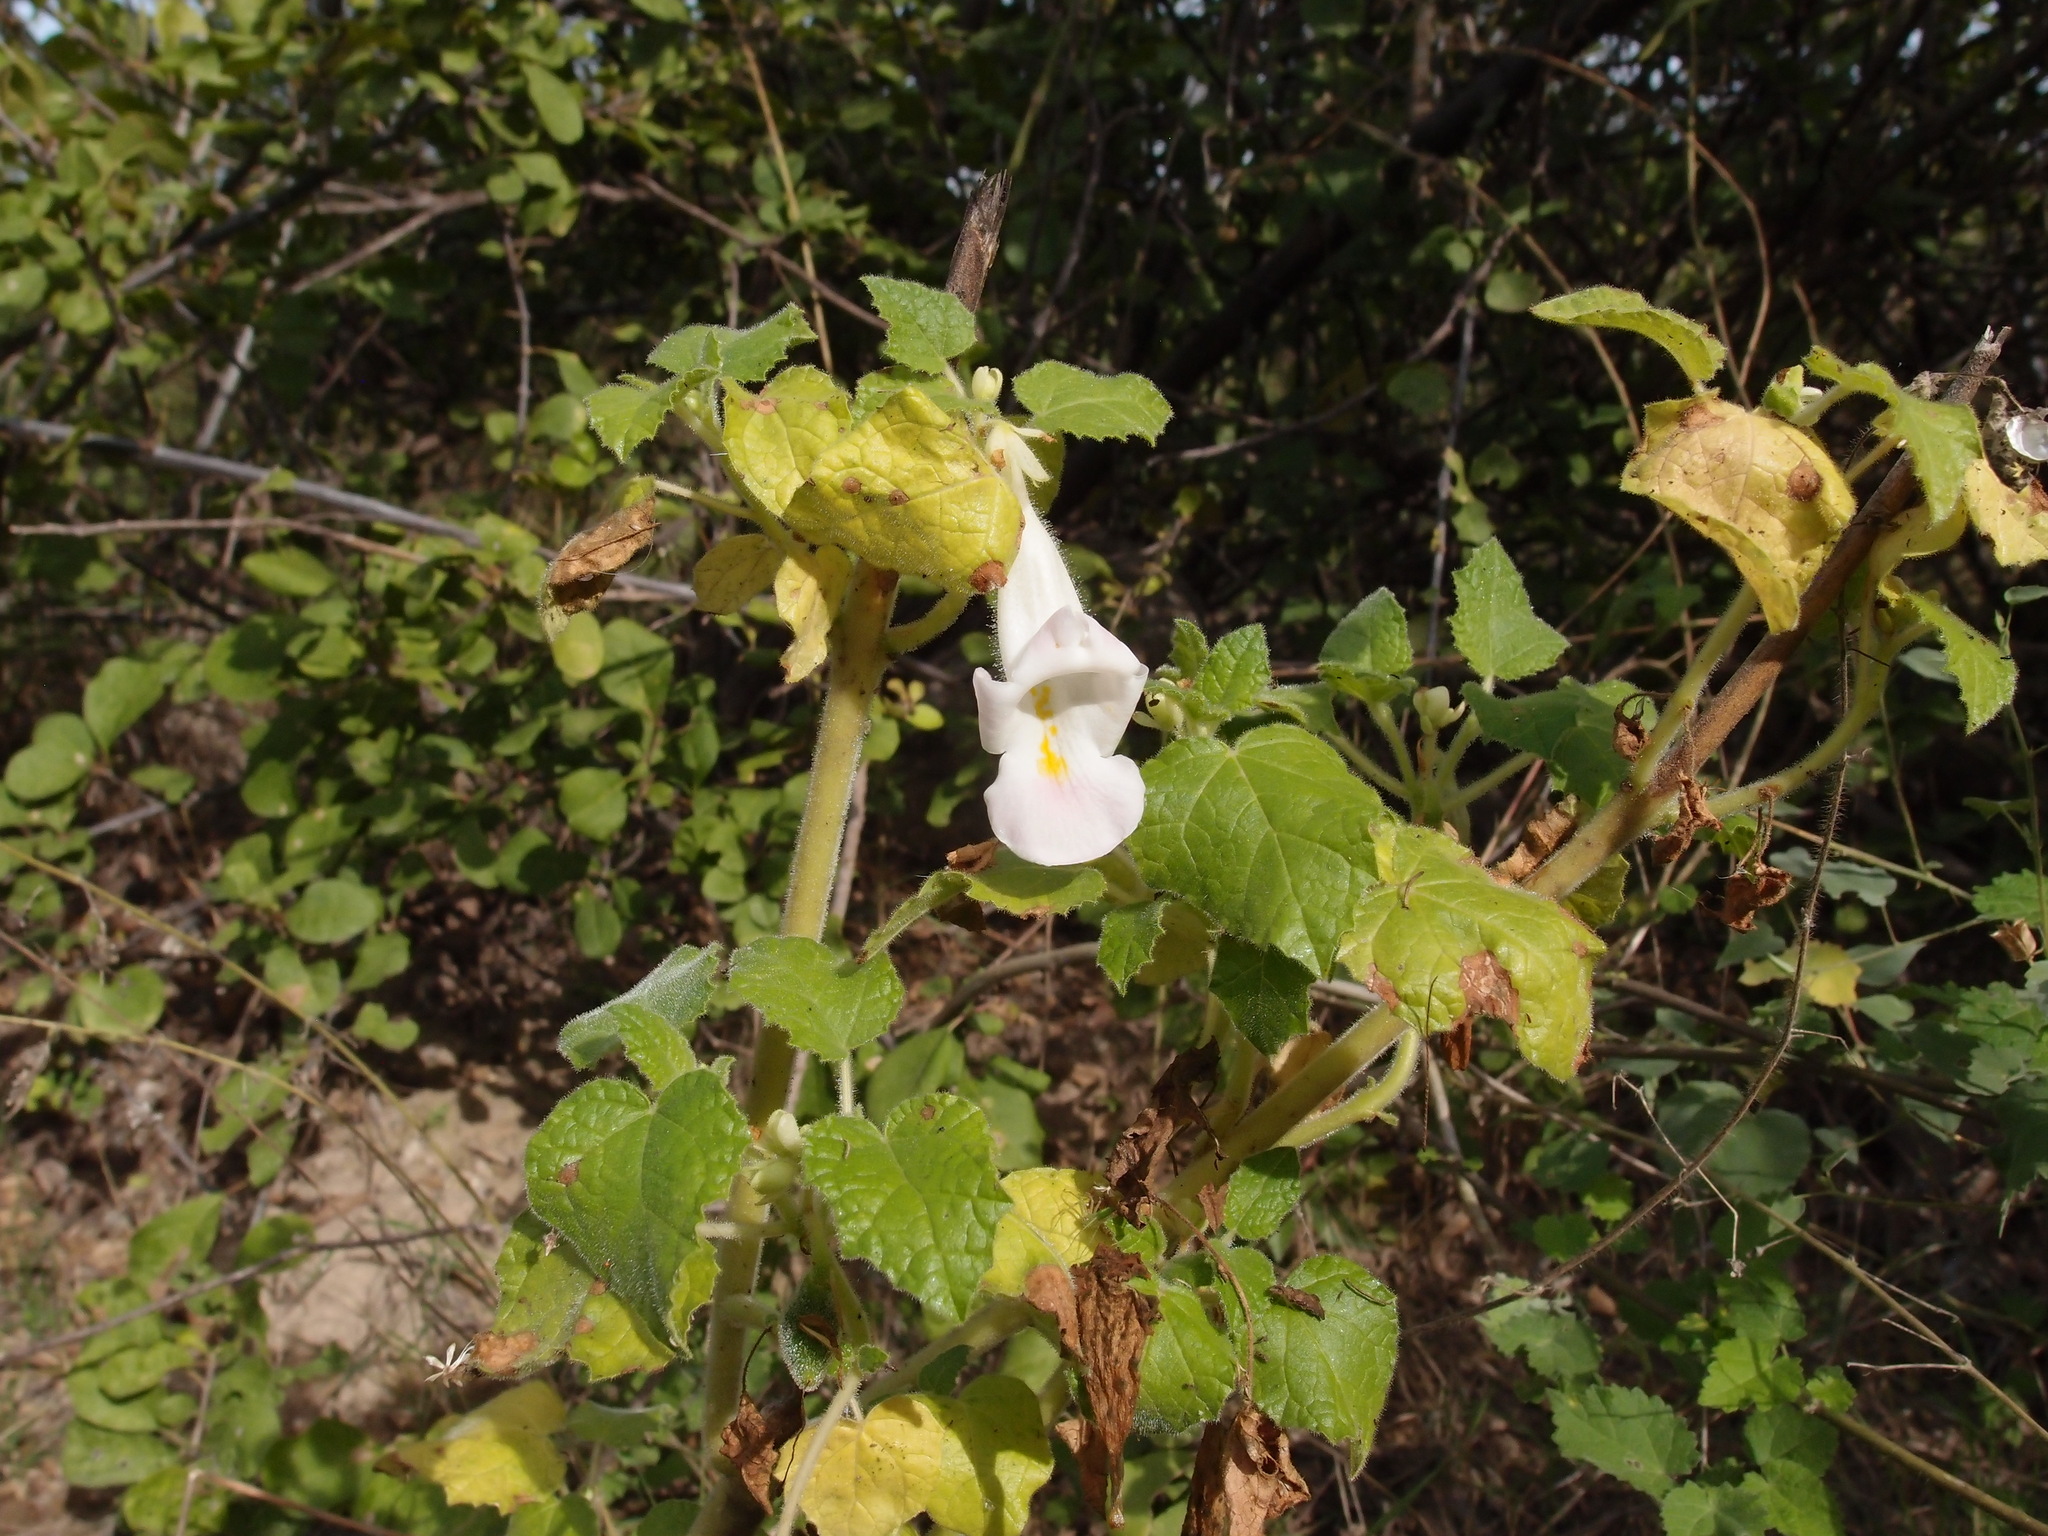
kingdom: Plantae
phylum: Tracheophyta
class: Magnoliopsida
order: Lamiales
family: Martyniaceae
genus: Martynia
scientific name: Martynia annua
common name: Tiger's-claw
